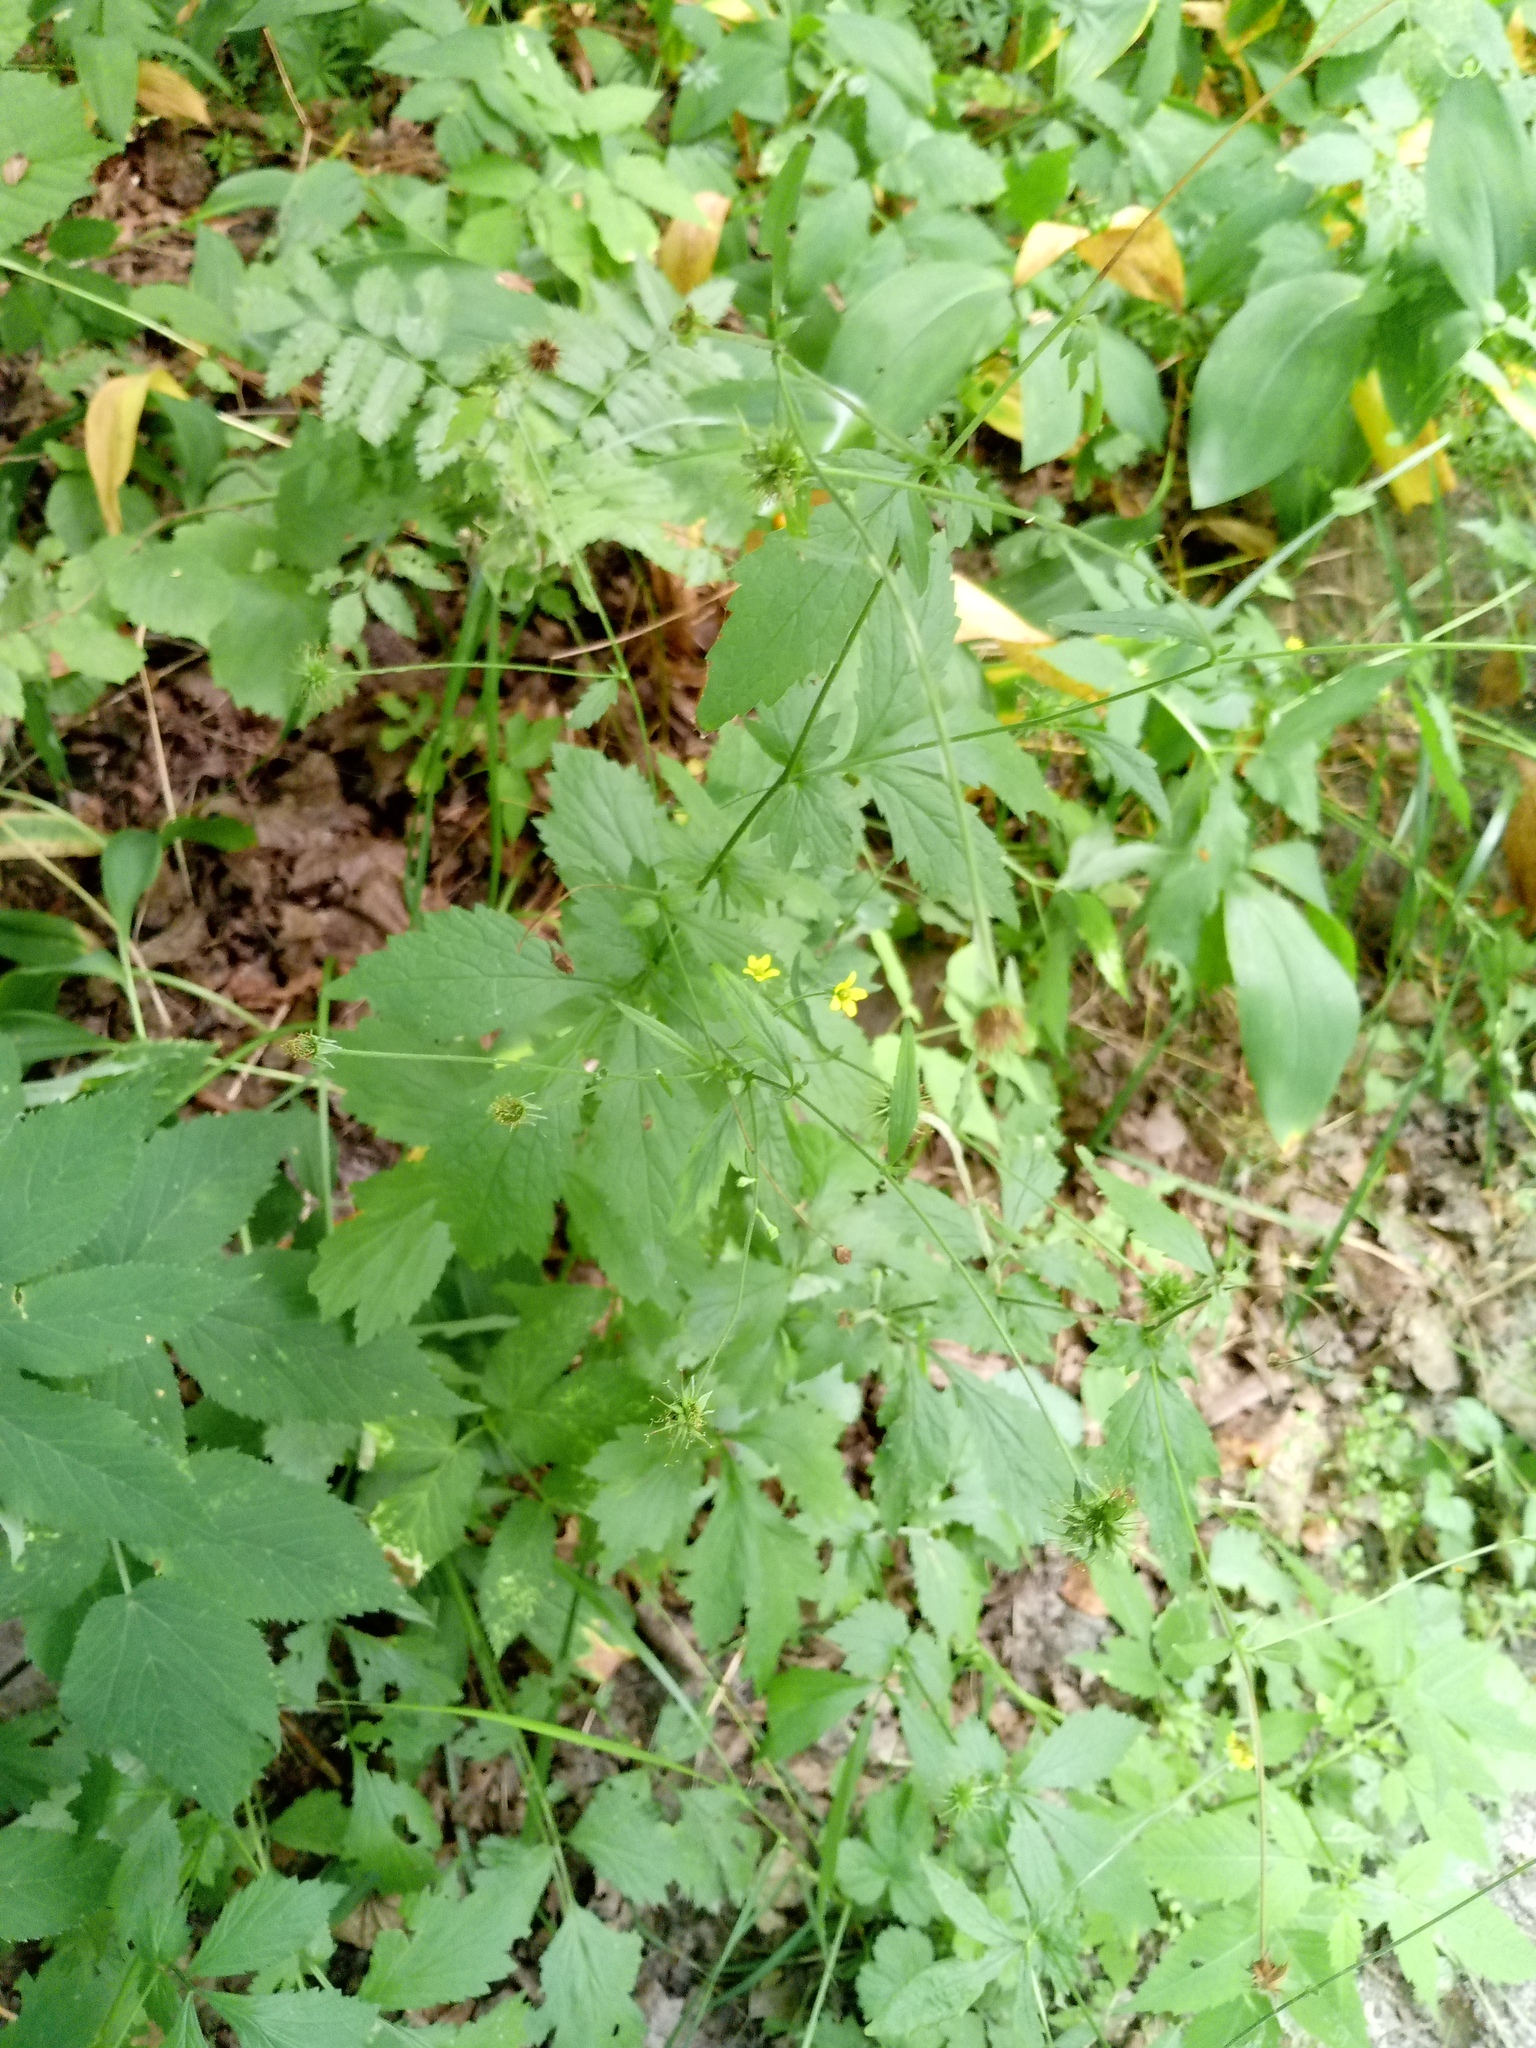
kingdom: Plantae
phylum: Tracheophyta
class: Magnoliopsida
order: Rosales
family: Rosaceae
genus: Geum
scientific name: Geum urbanum
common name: Wood avens
